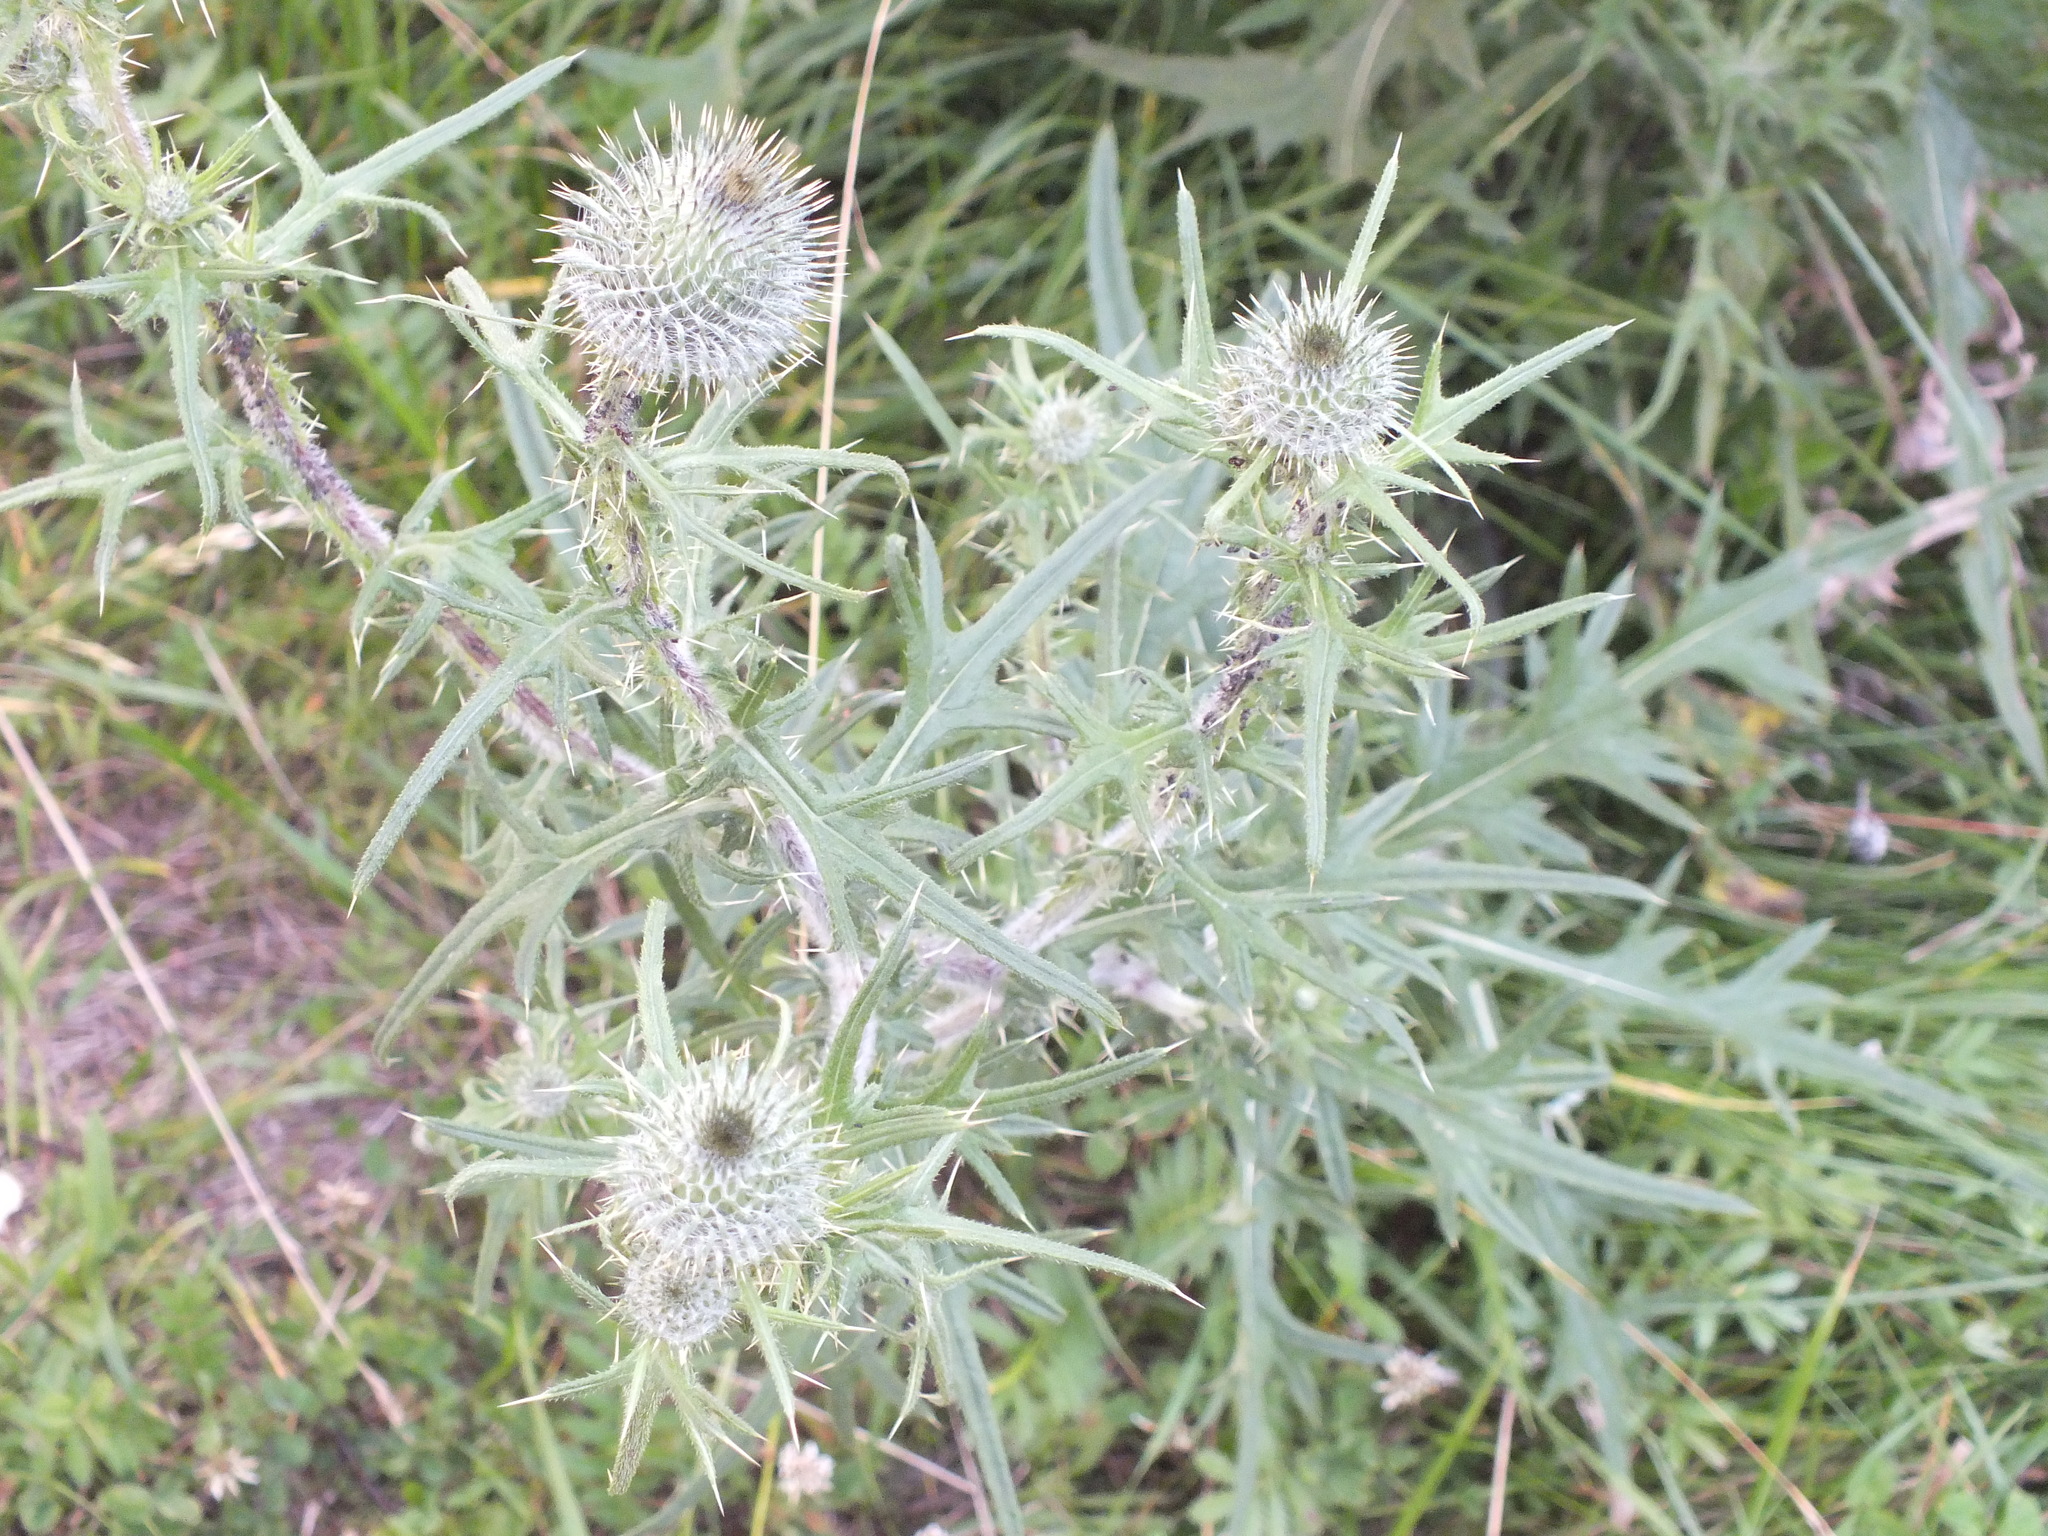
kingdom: Plantae
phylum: Tracheophyta
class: Magnoliopsida
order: Asterales
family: Asteraceae
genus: Cirsium
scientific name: Cirsium vulgare
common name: Bull thistle
